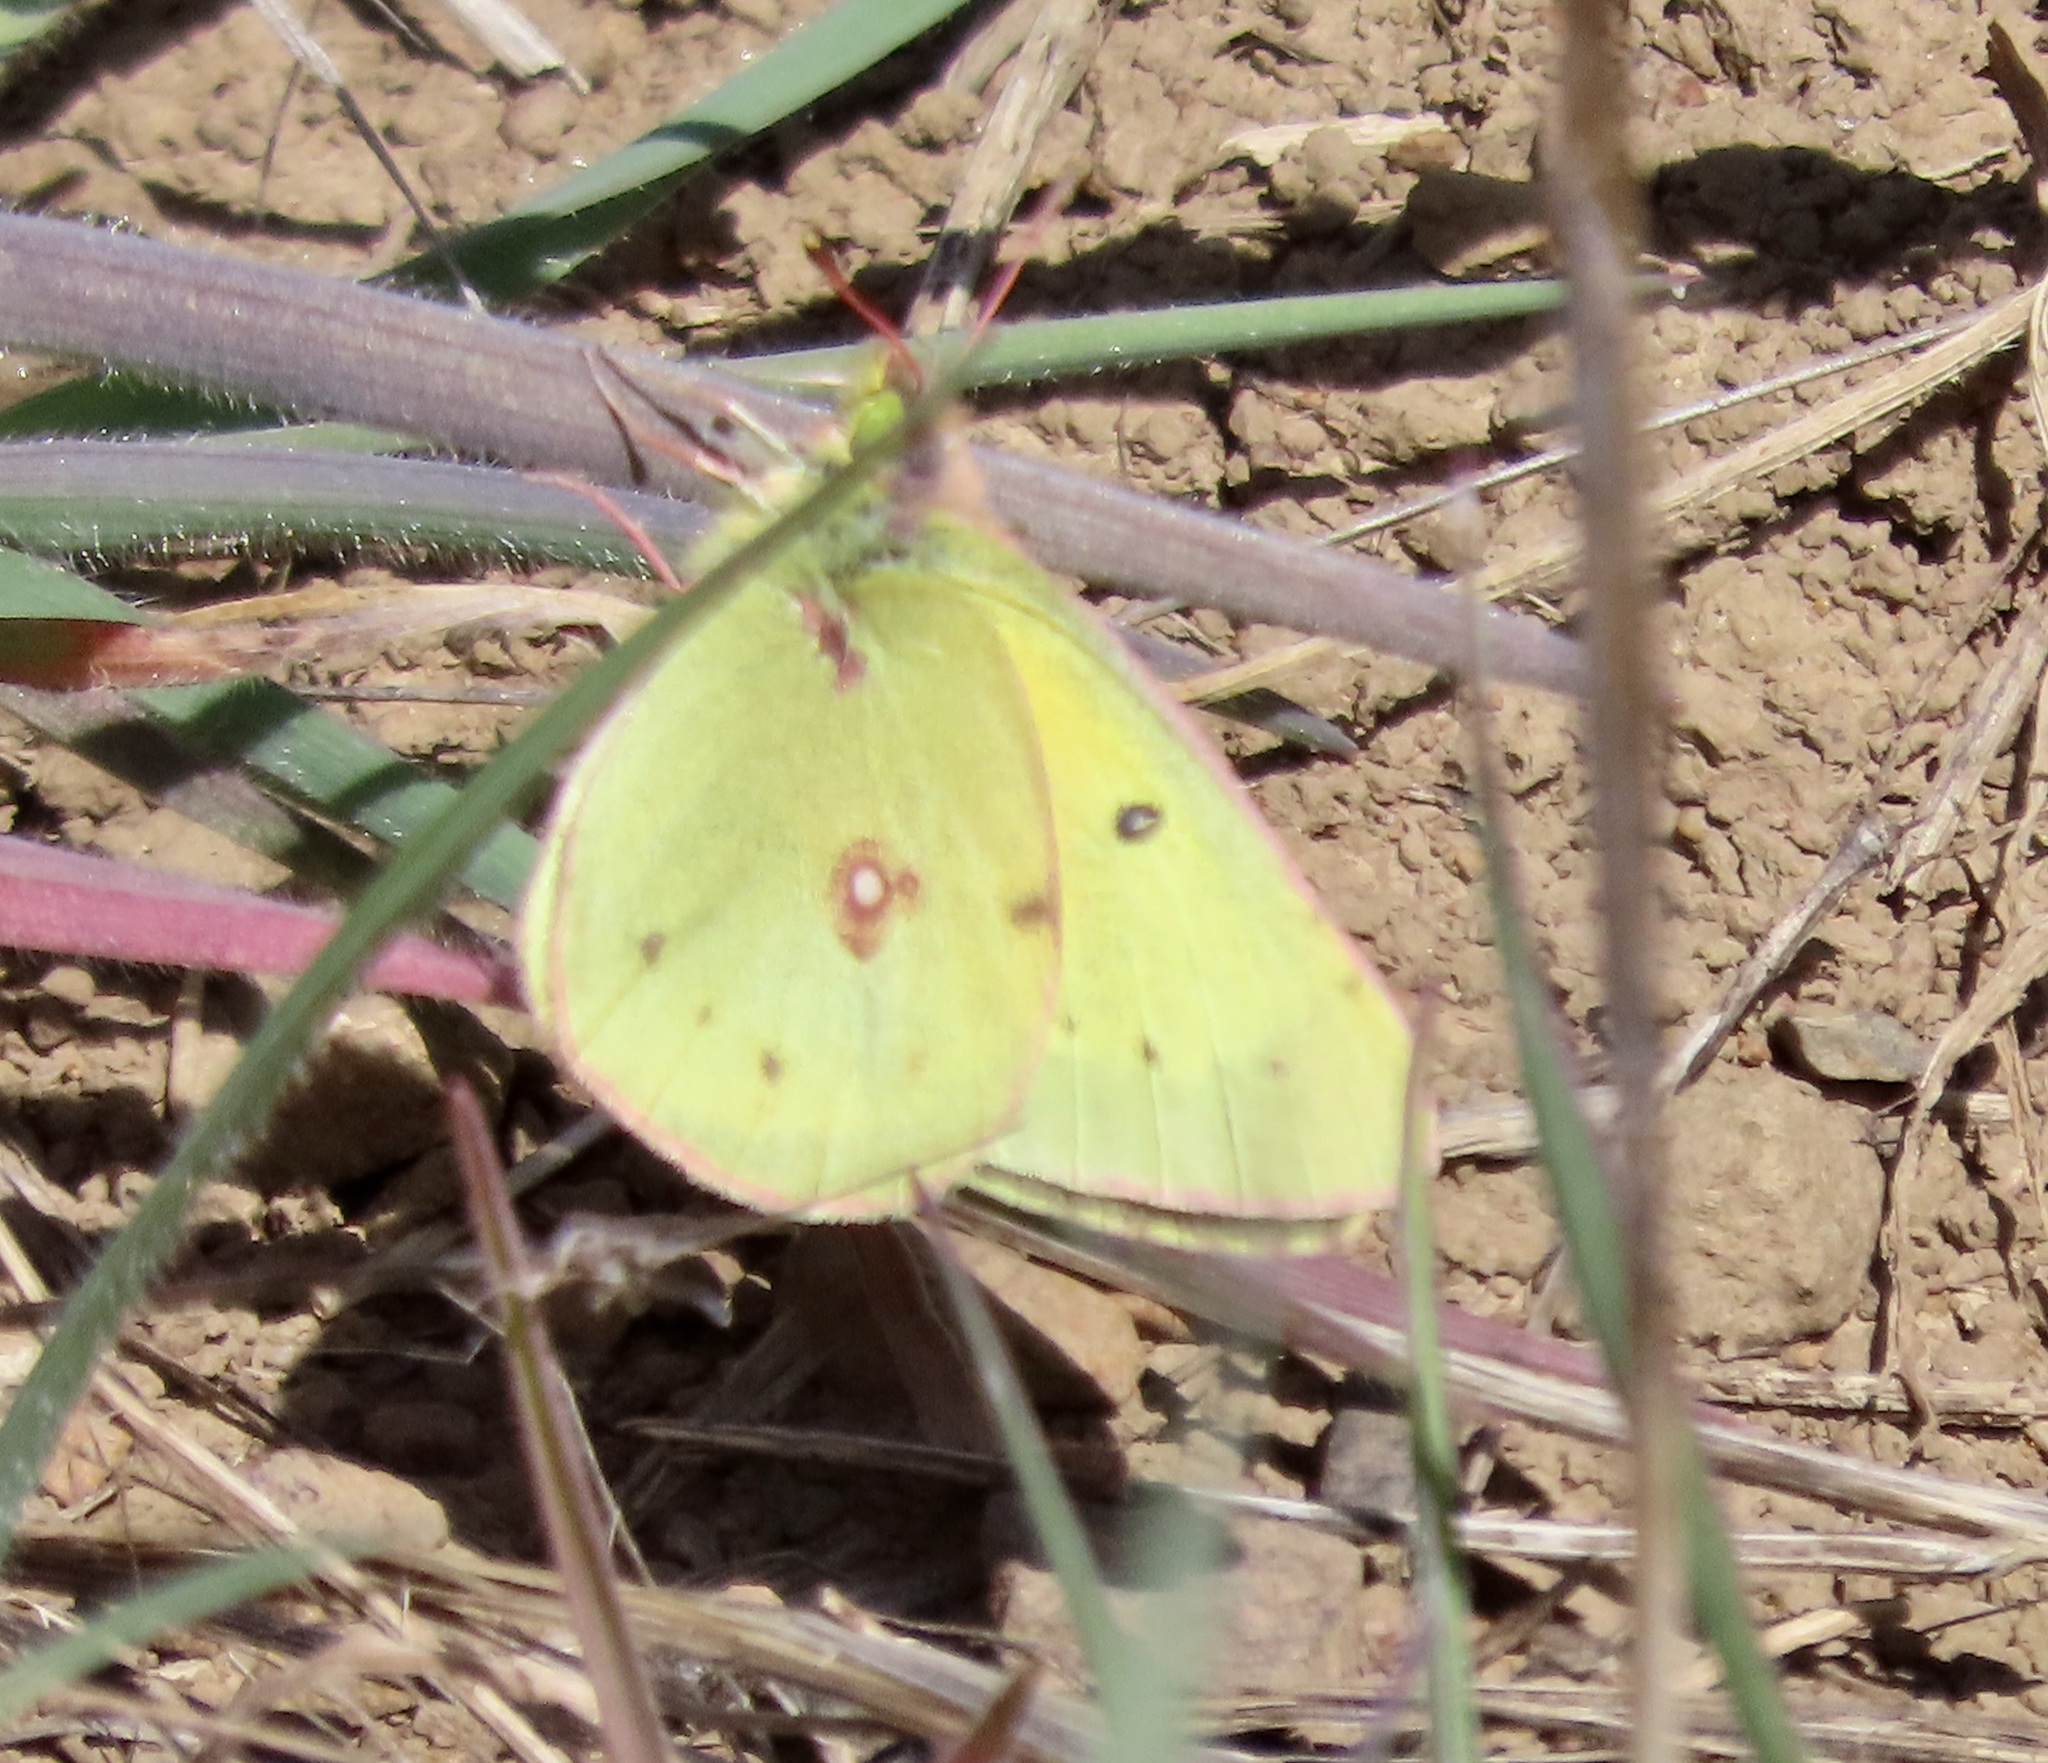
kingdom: Animalia
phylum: Arthropoda
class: Insecta
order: Lepidoptera
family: Pieridae
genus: Colias
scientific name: Colias eurytheme
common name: Alfalfa butterfly
